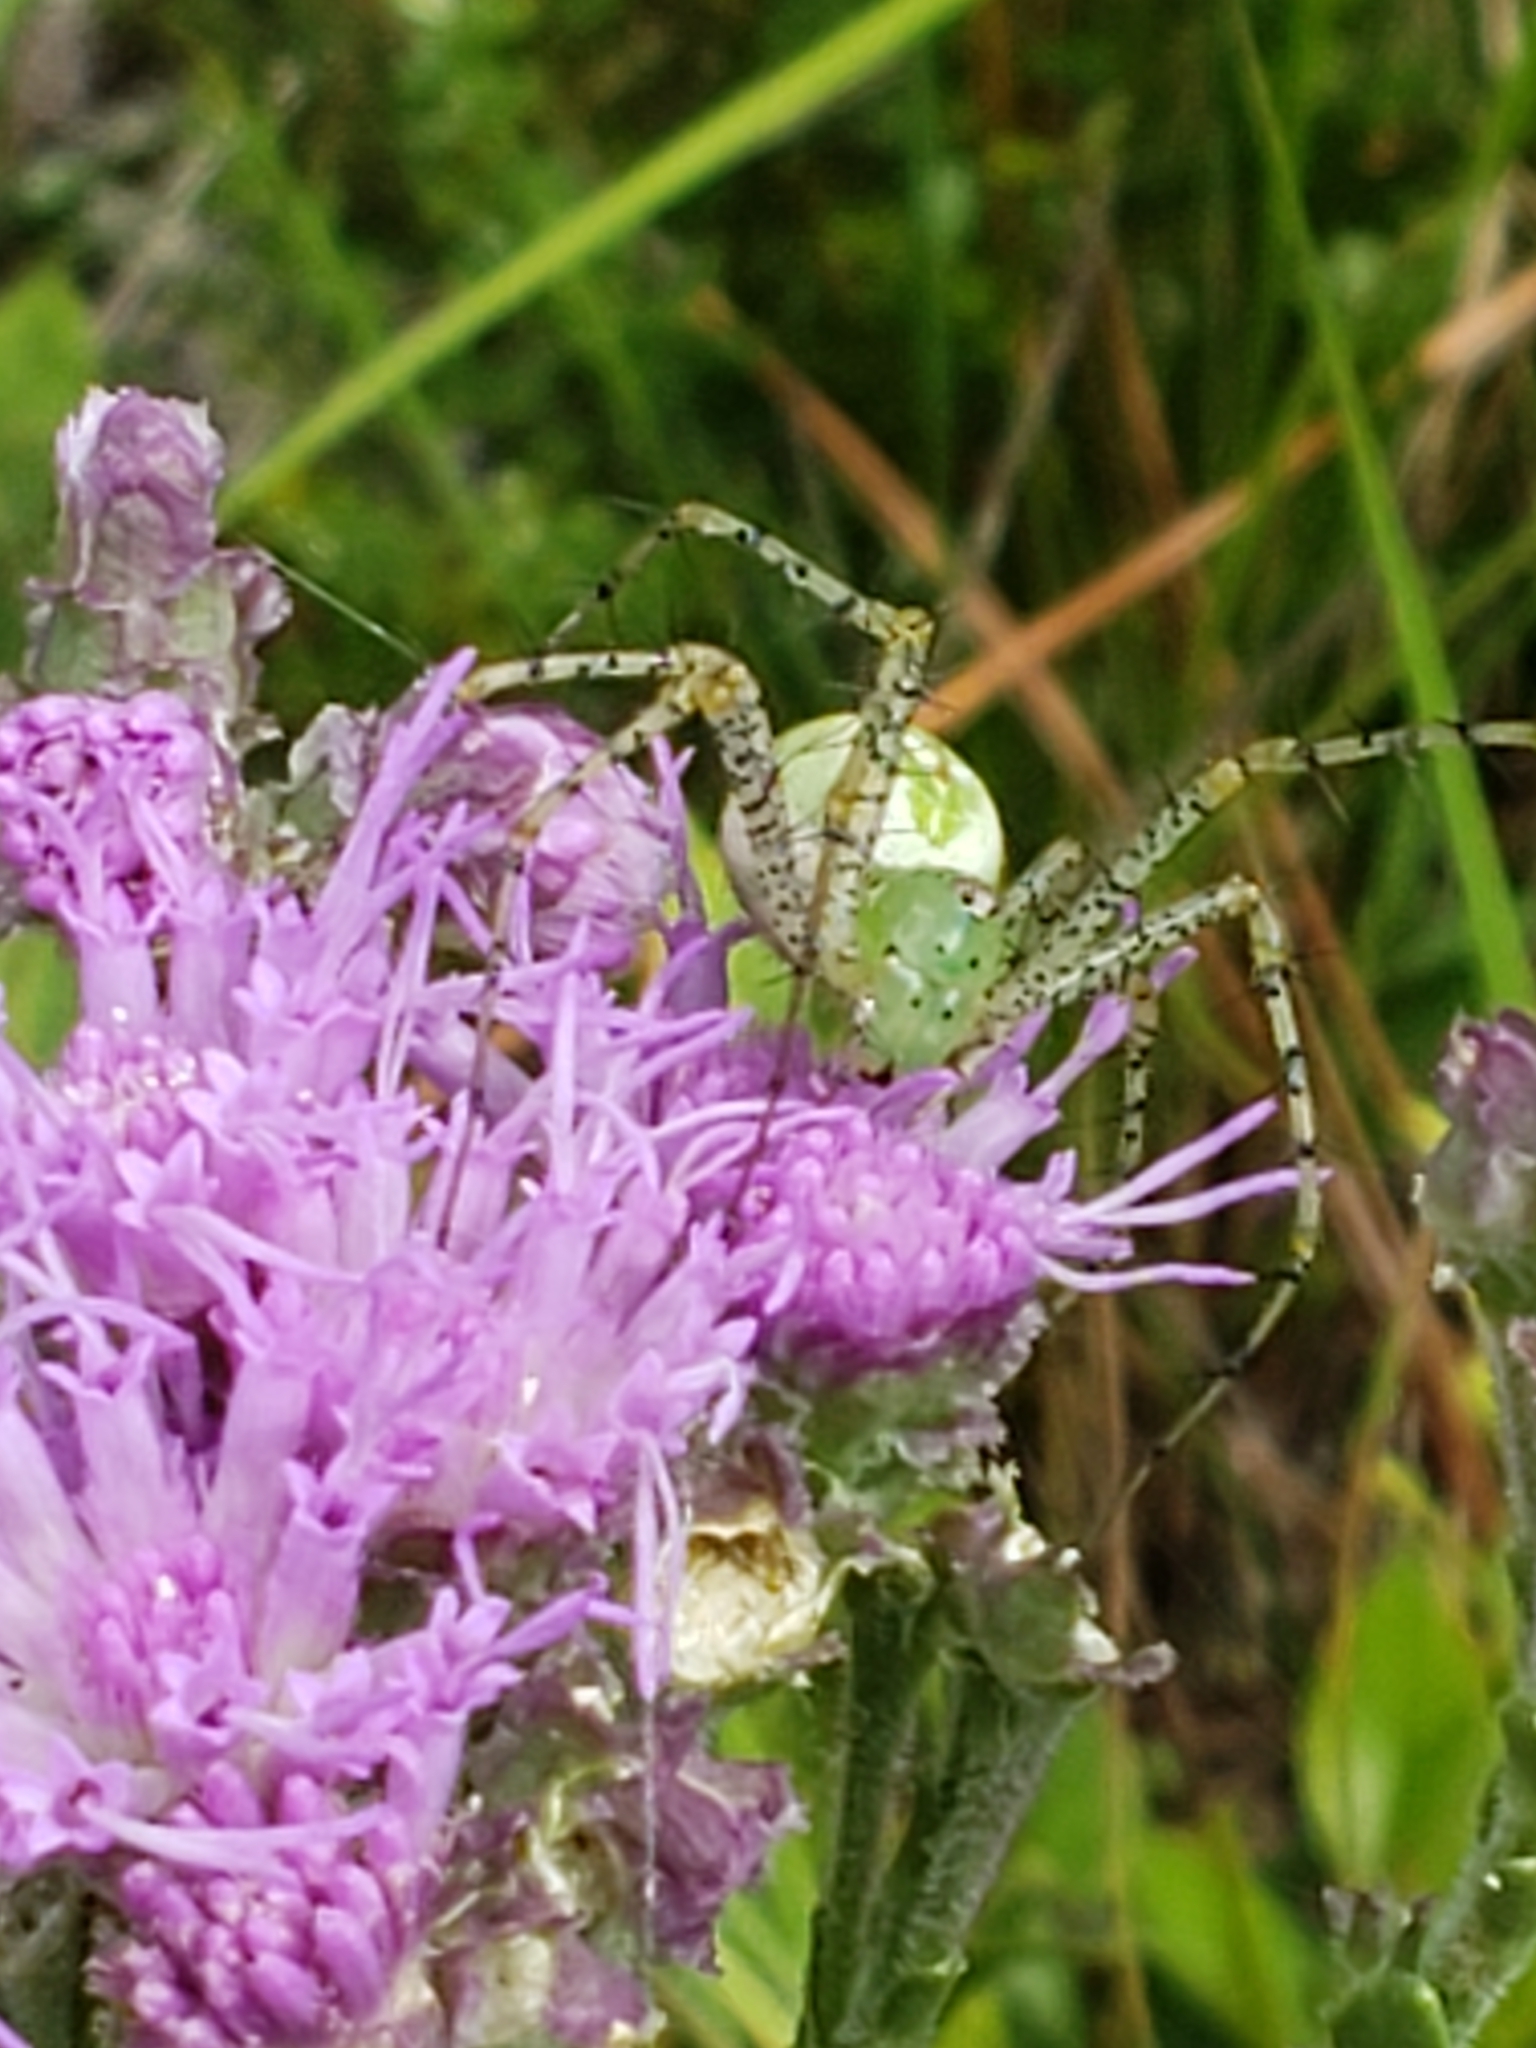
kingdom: Animalia
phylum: Arthropoda
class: Arachnida
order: Araneae
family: Oxyopidae
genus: Peucetia
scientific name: Peucetia viridans
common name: Lynx spiders
